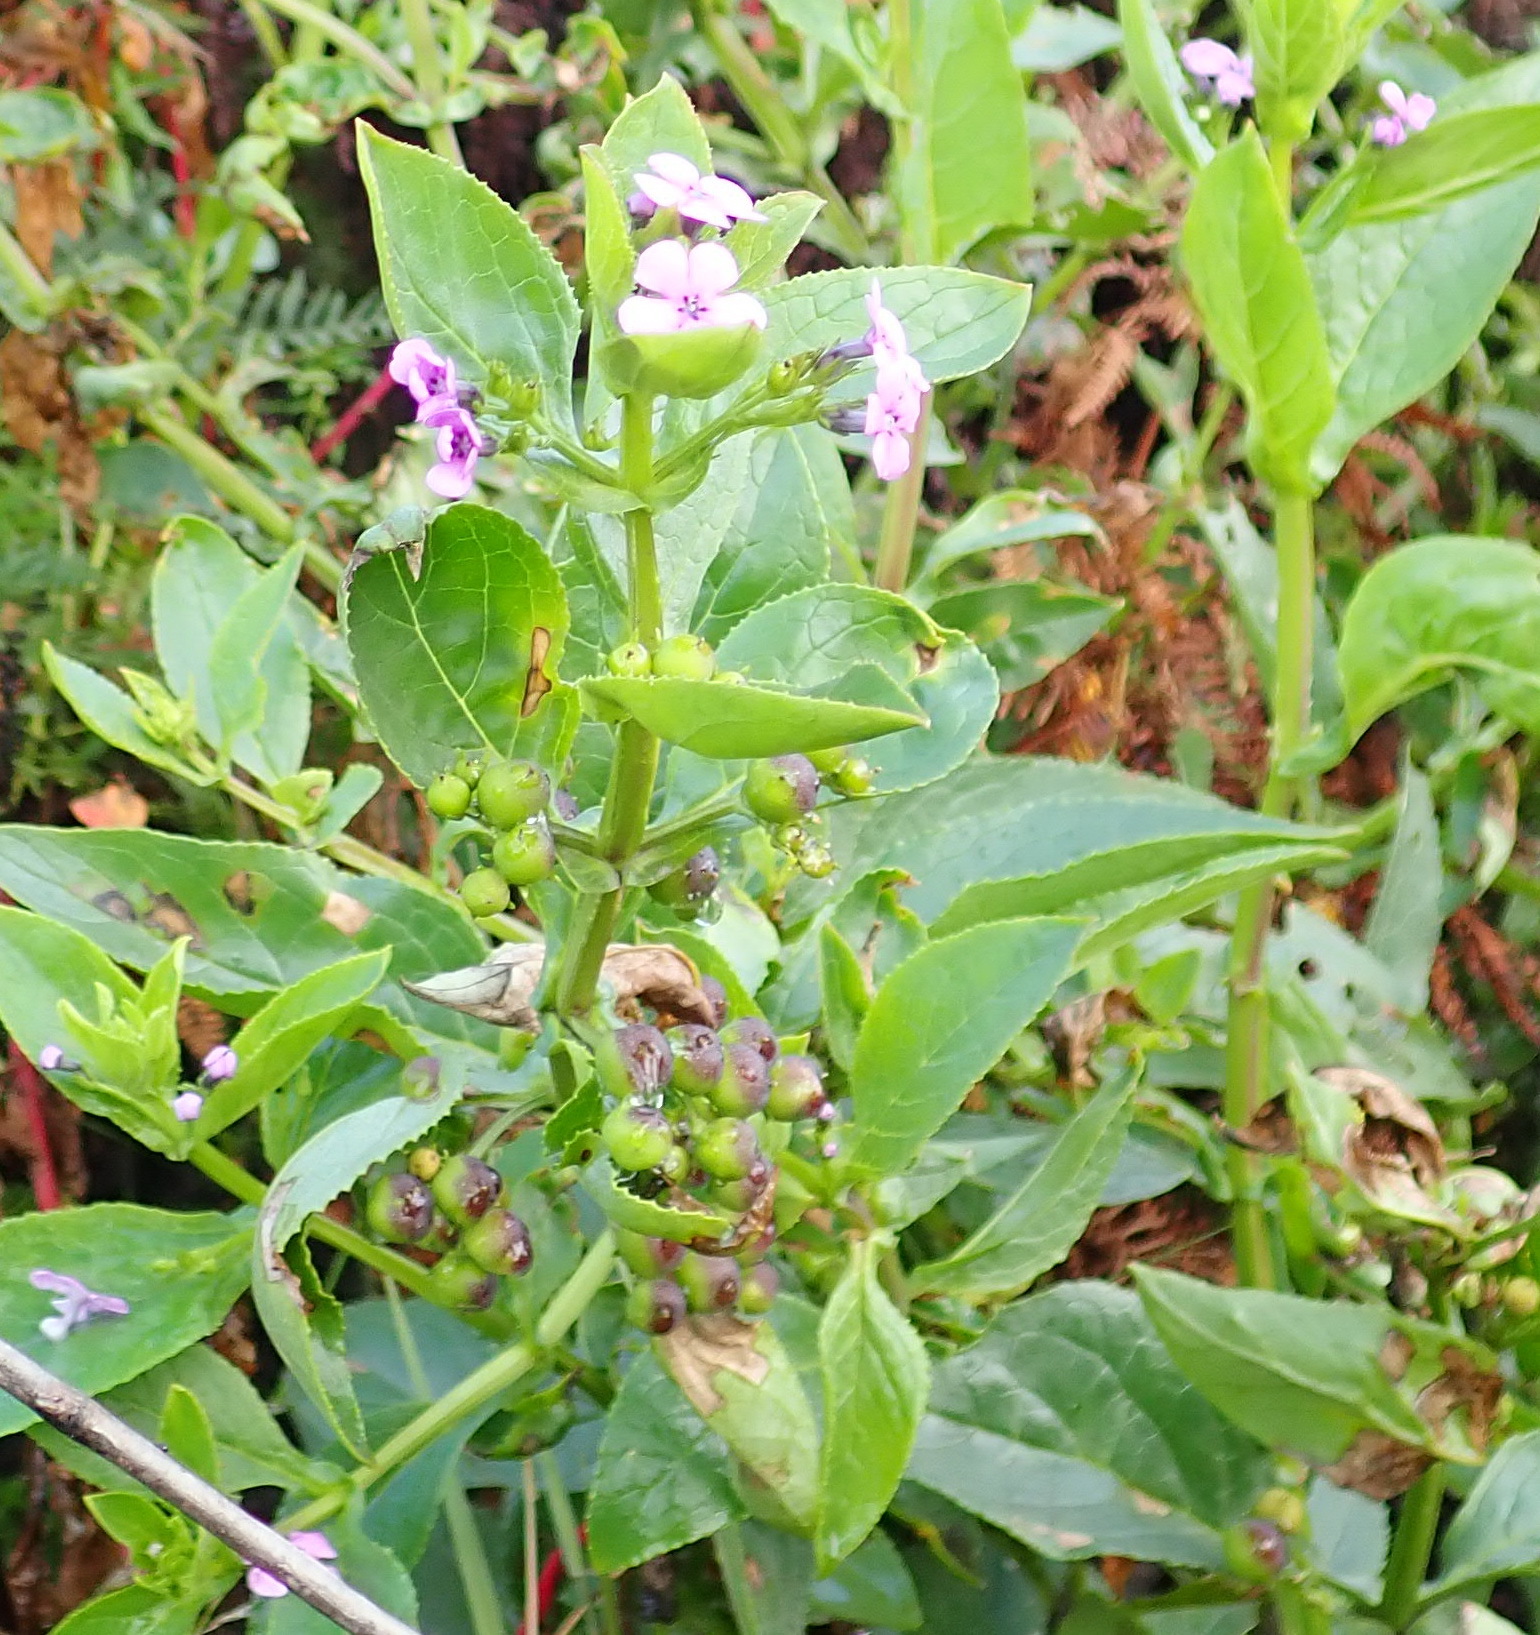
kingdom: Plantae
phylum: Tracheophyta
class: Magnoliopsida
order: Lamiales
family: Scrophulariaceae
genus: Teedia
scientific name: Teedia lucida
